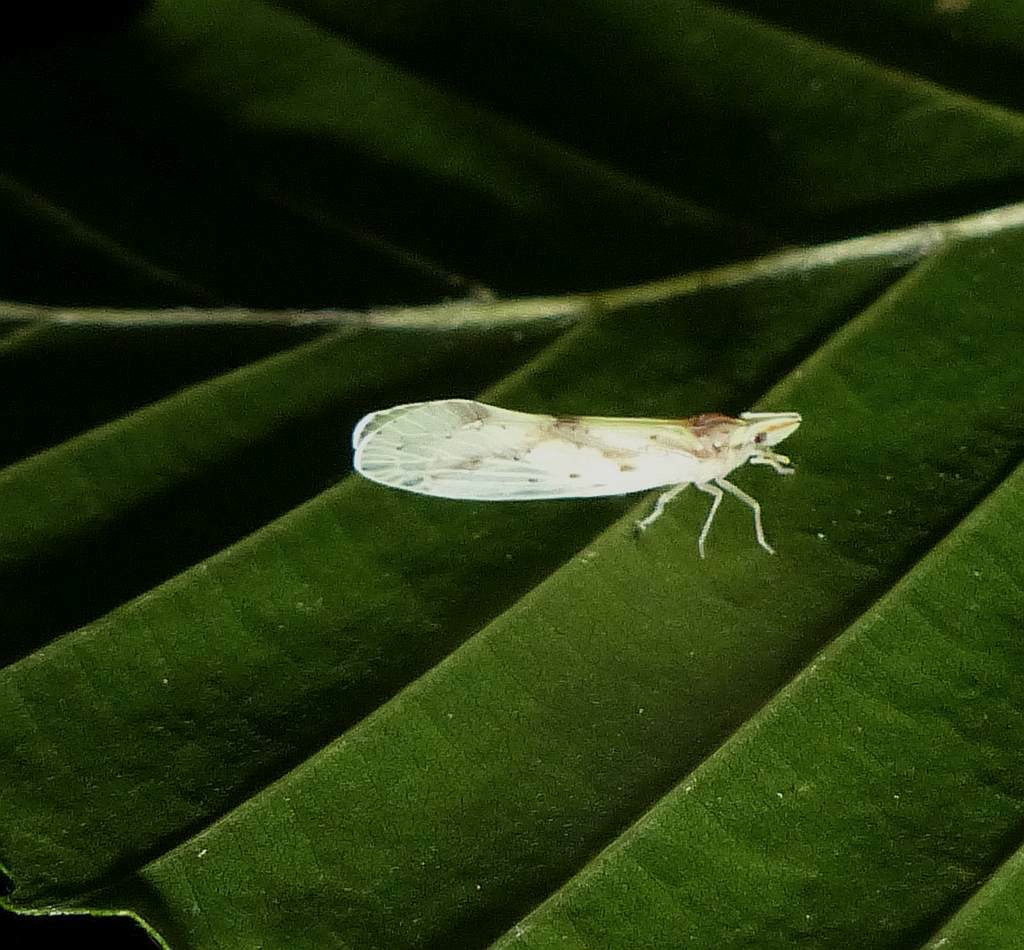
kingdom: Animalia
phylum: Arthropoda
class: Insecta
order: Hemiptera
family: Derbidae
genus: Otiocerus
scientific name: Otiocerus wolfii
